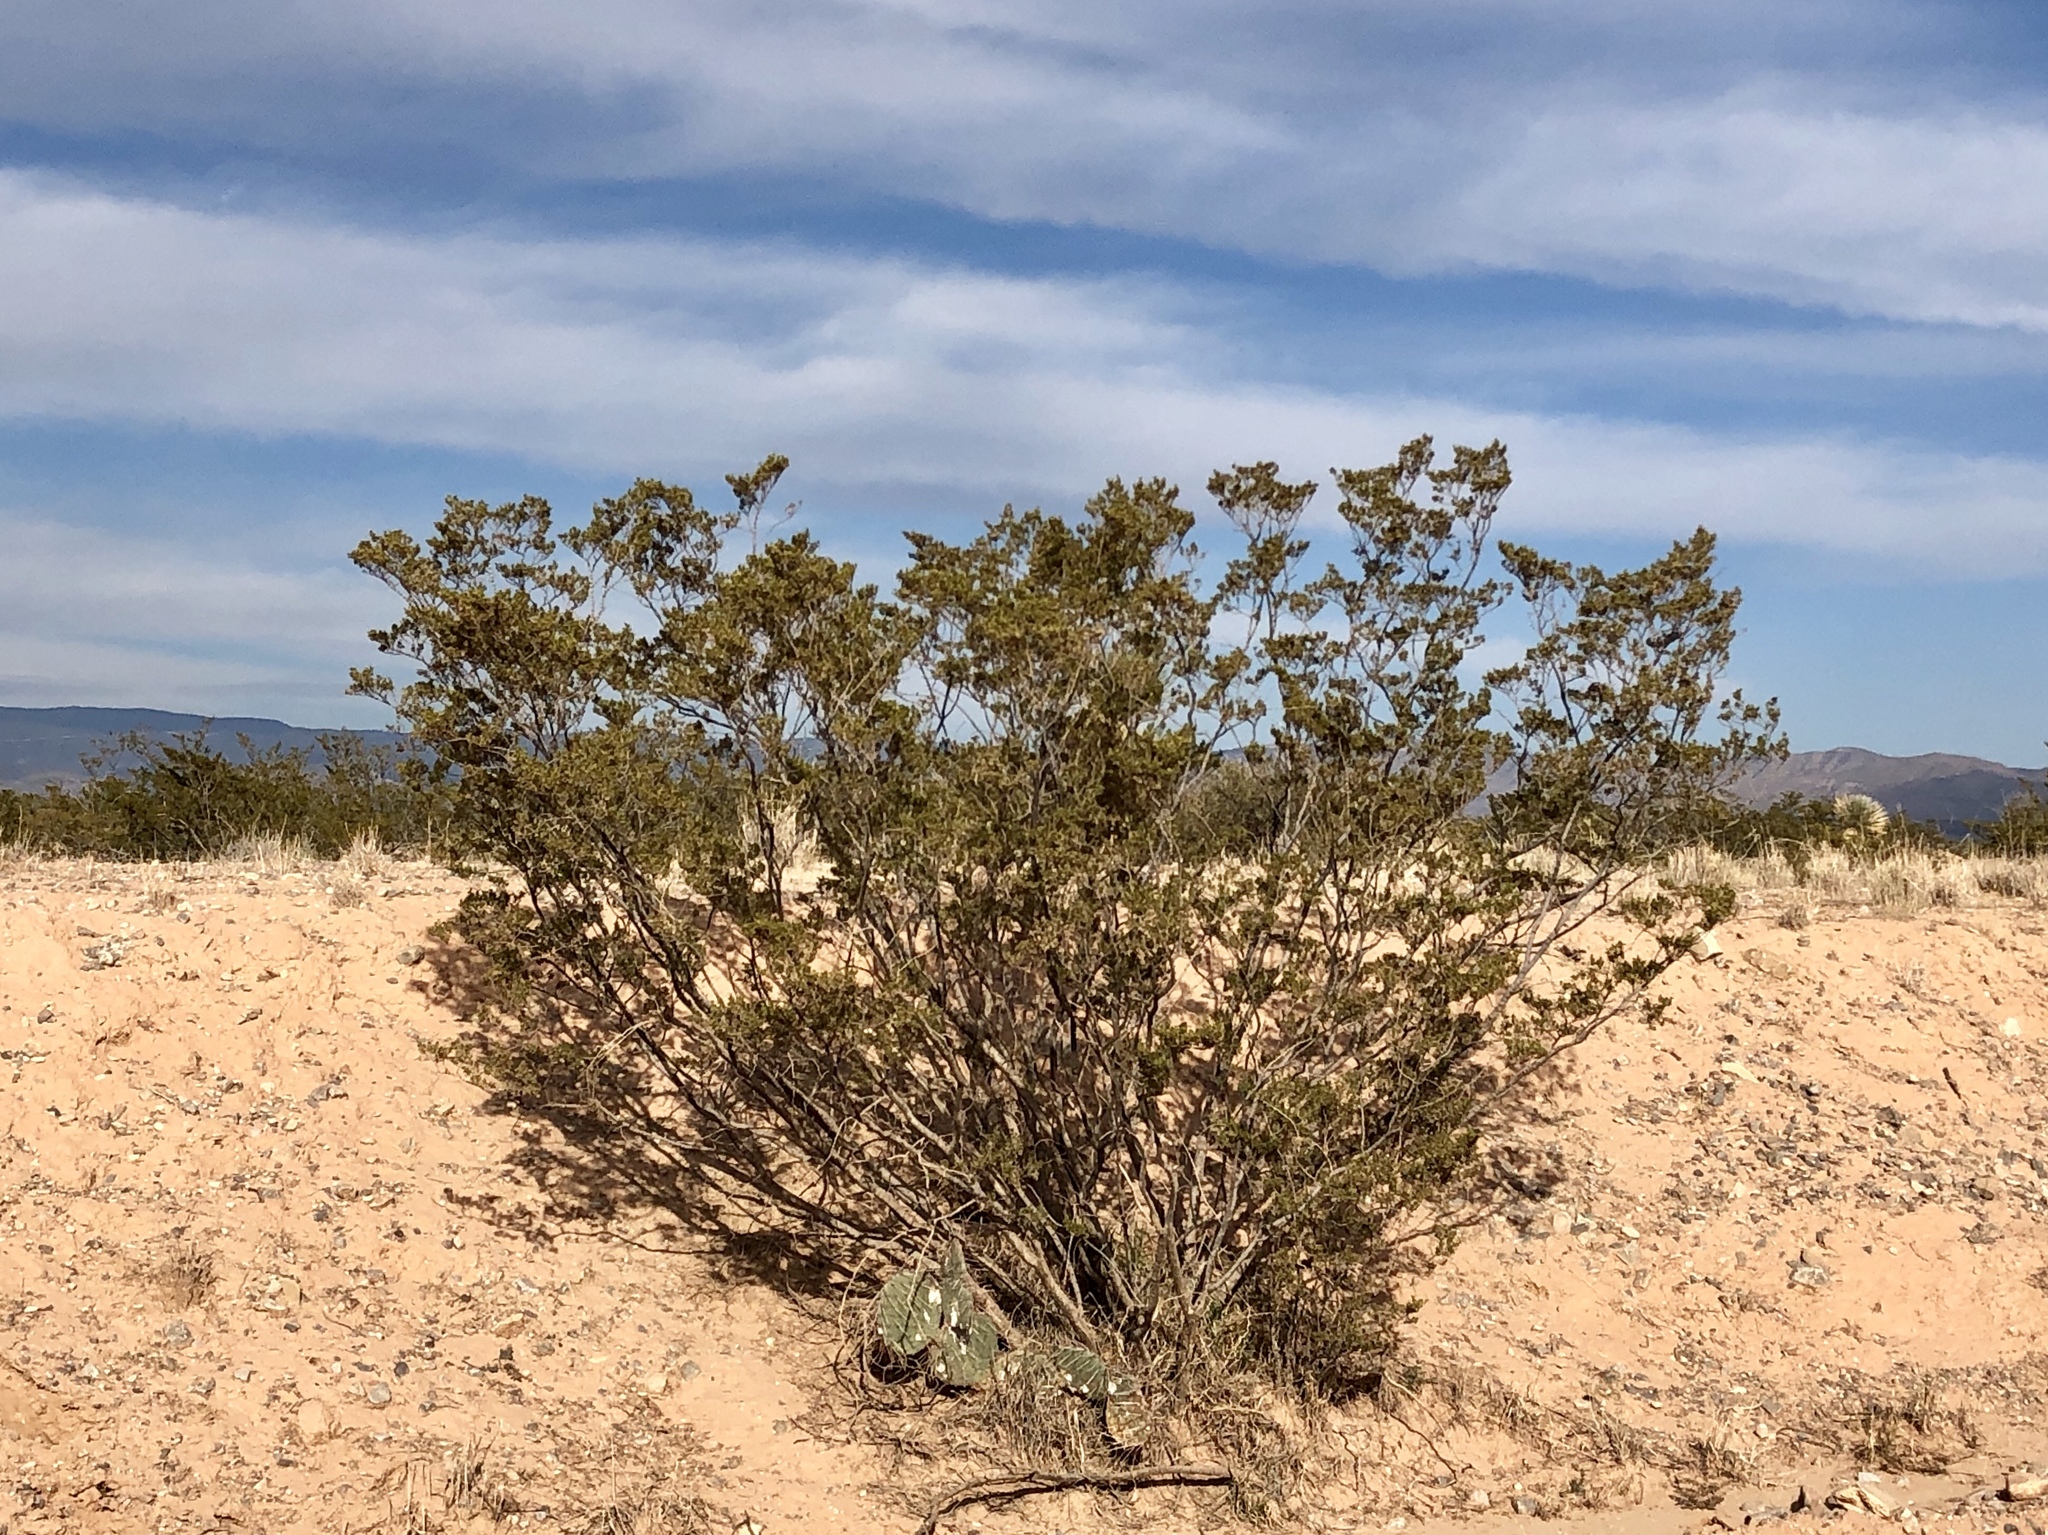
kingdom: Plantae
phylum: Tracheophyta
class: Magnoliopsida
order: Zygophyllales
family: Zygophyllaceae
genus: Larrea
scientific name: Larrea tridentata
